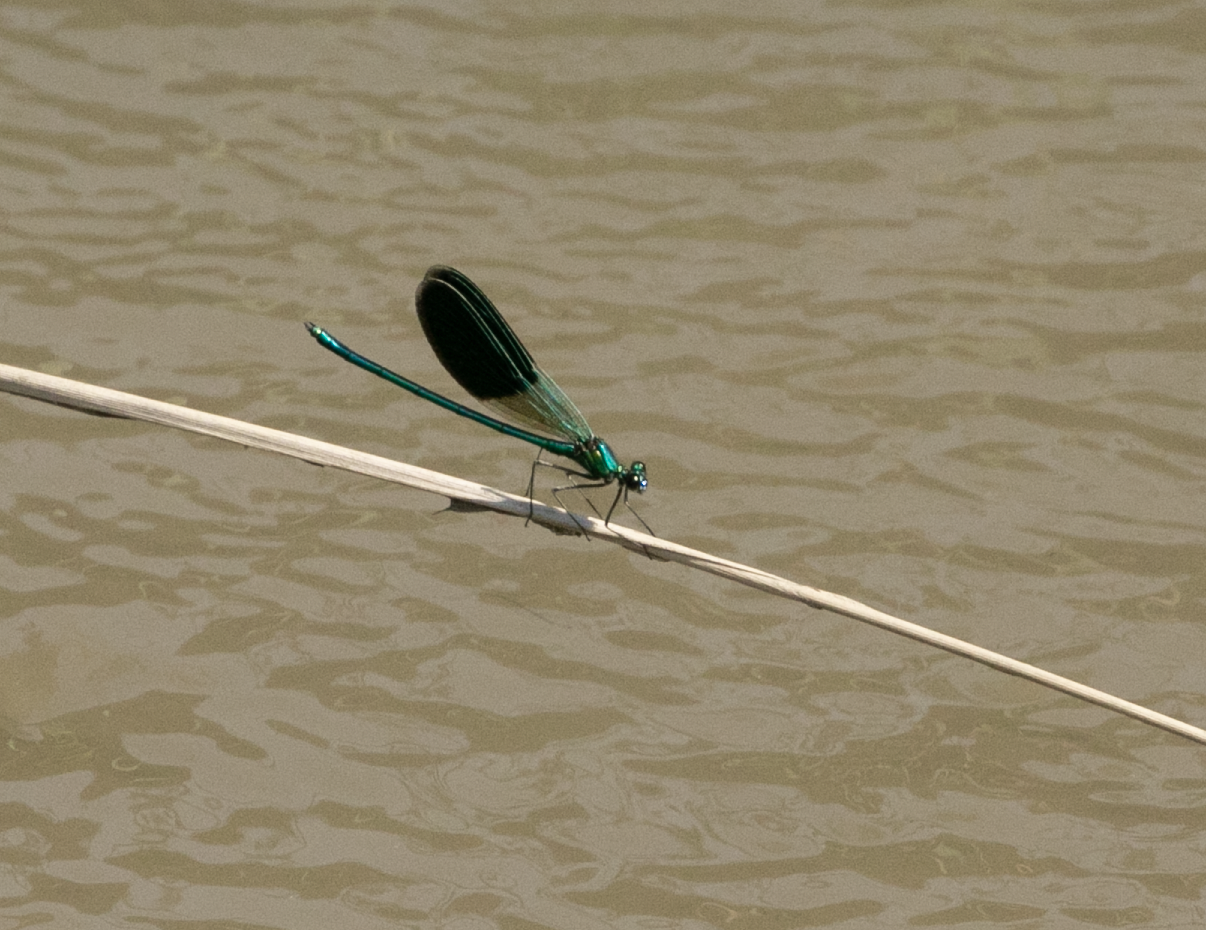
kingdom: Animalia
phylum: Arthropoda
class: Insecta
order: Odonata
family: Calopterygidae
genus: Calopteryx
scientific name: Calopteryx splendens
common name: Banded demoiselle
